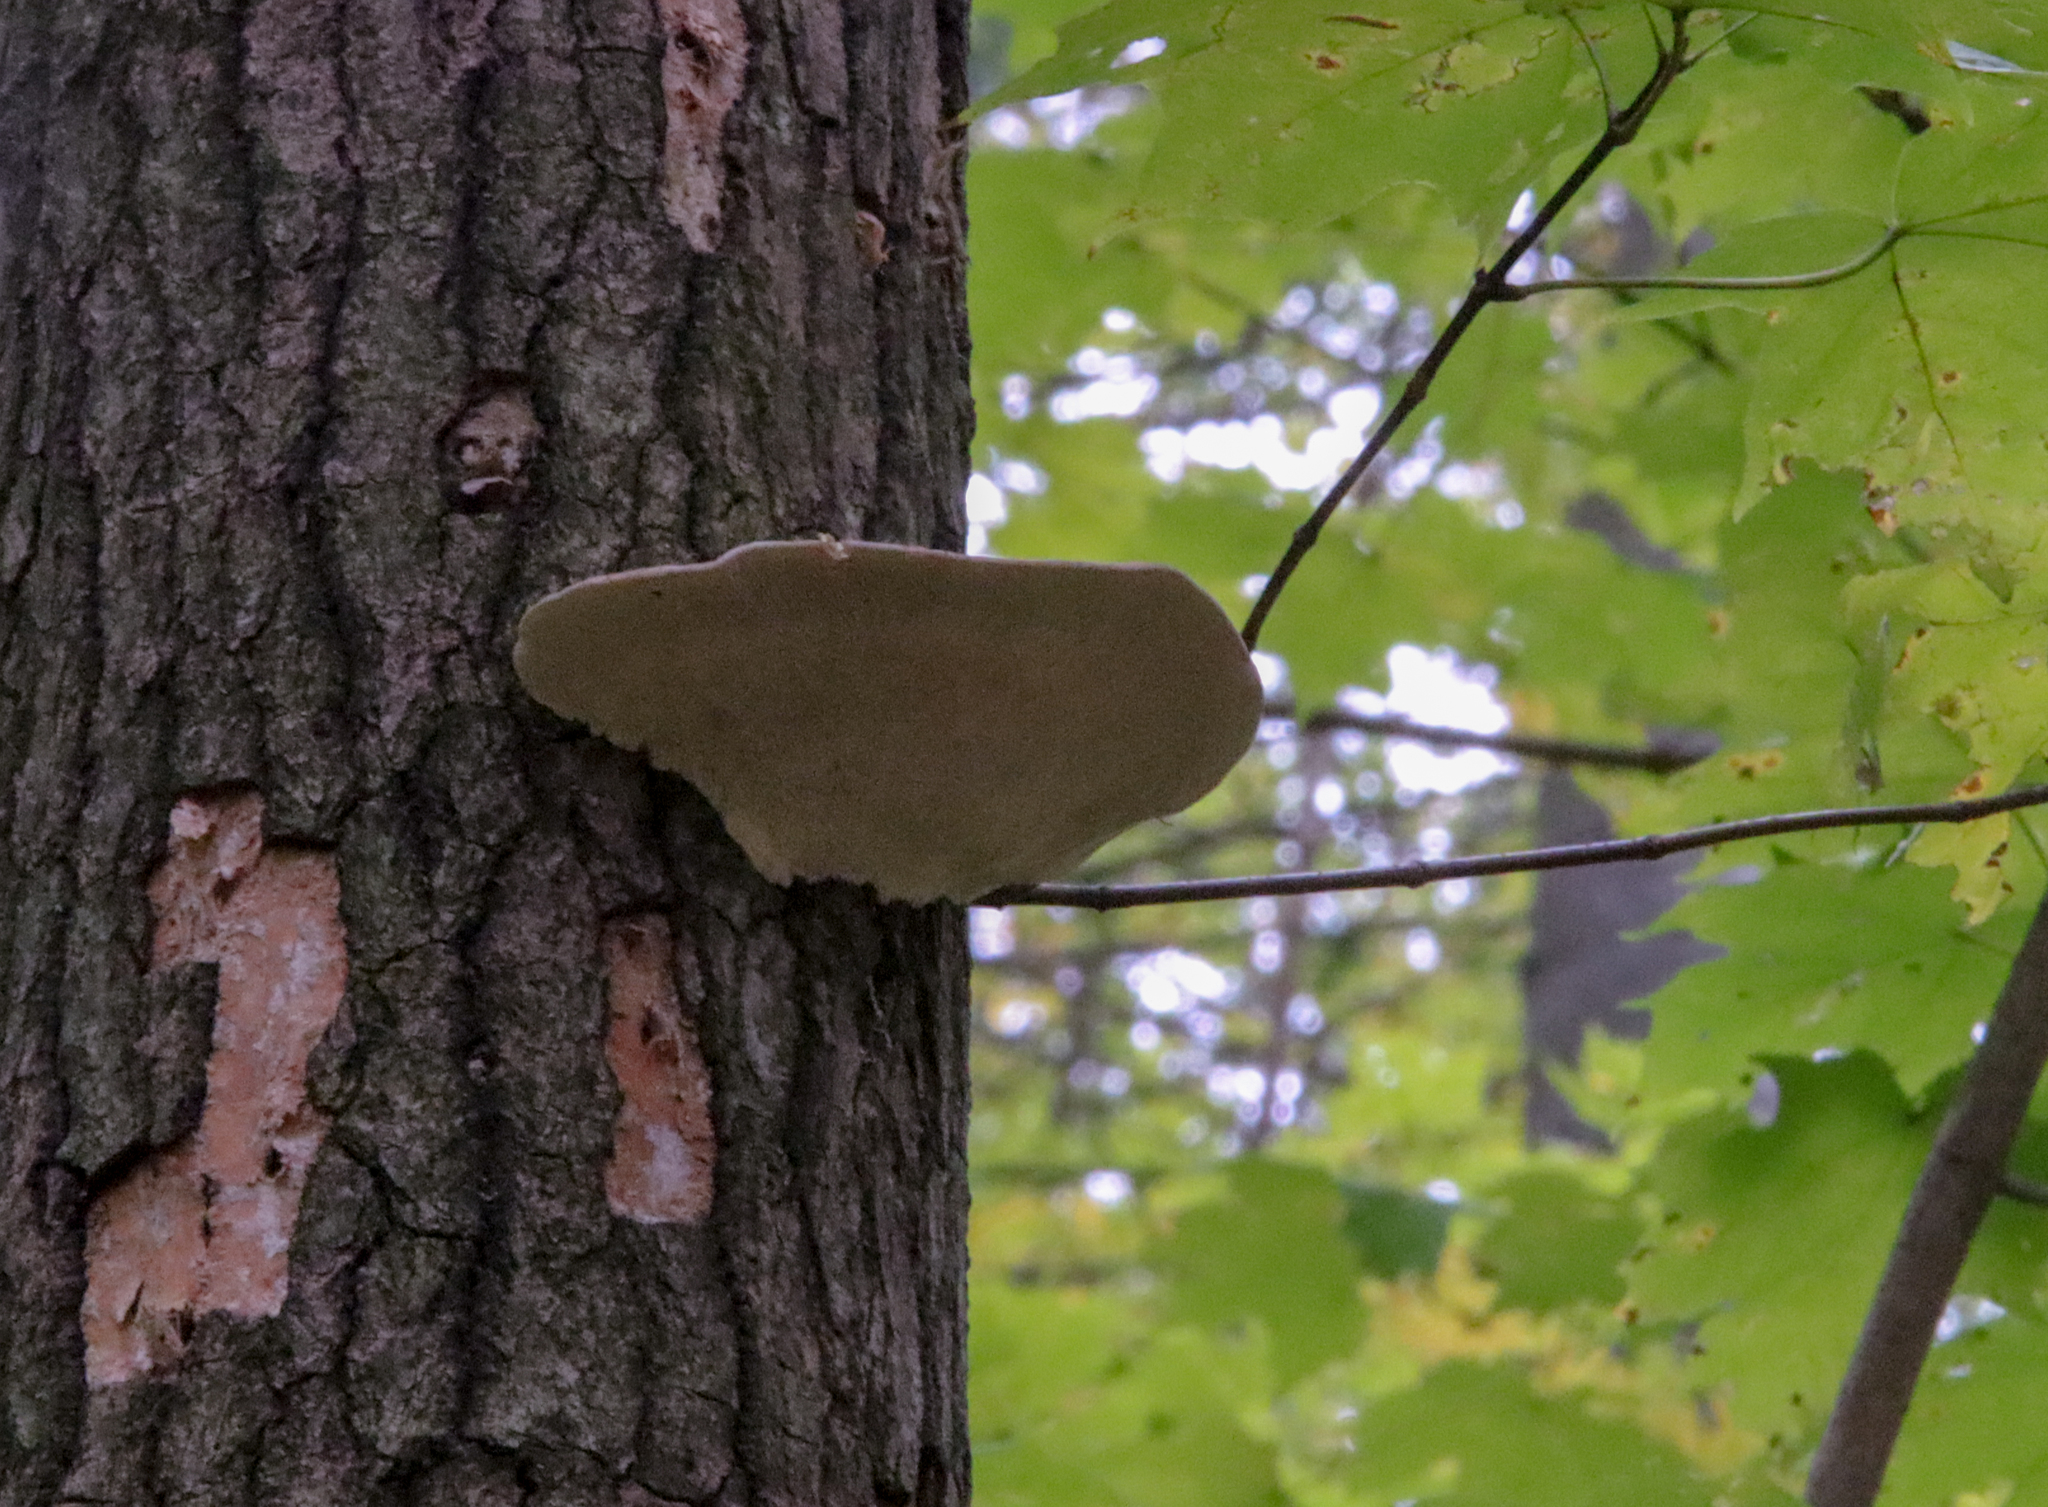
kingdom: Fungi
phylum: Basidiomycota
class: Agaricomycetes
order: Polyporales
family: Polyporaceae
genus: Trametes
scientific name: Trametes gibbosa
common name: Lumpy bracket
